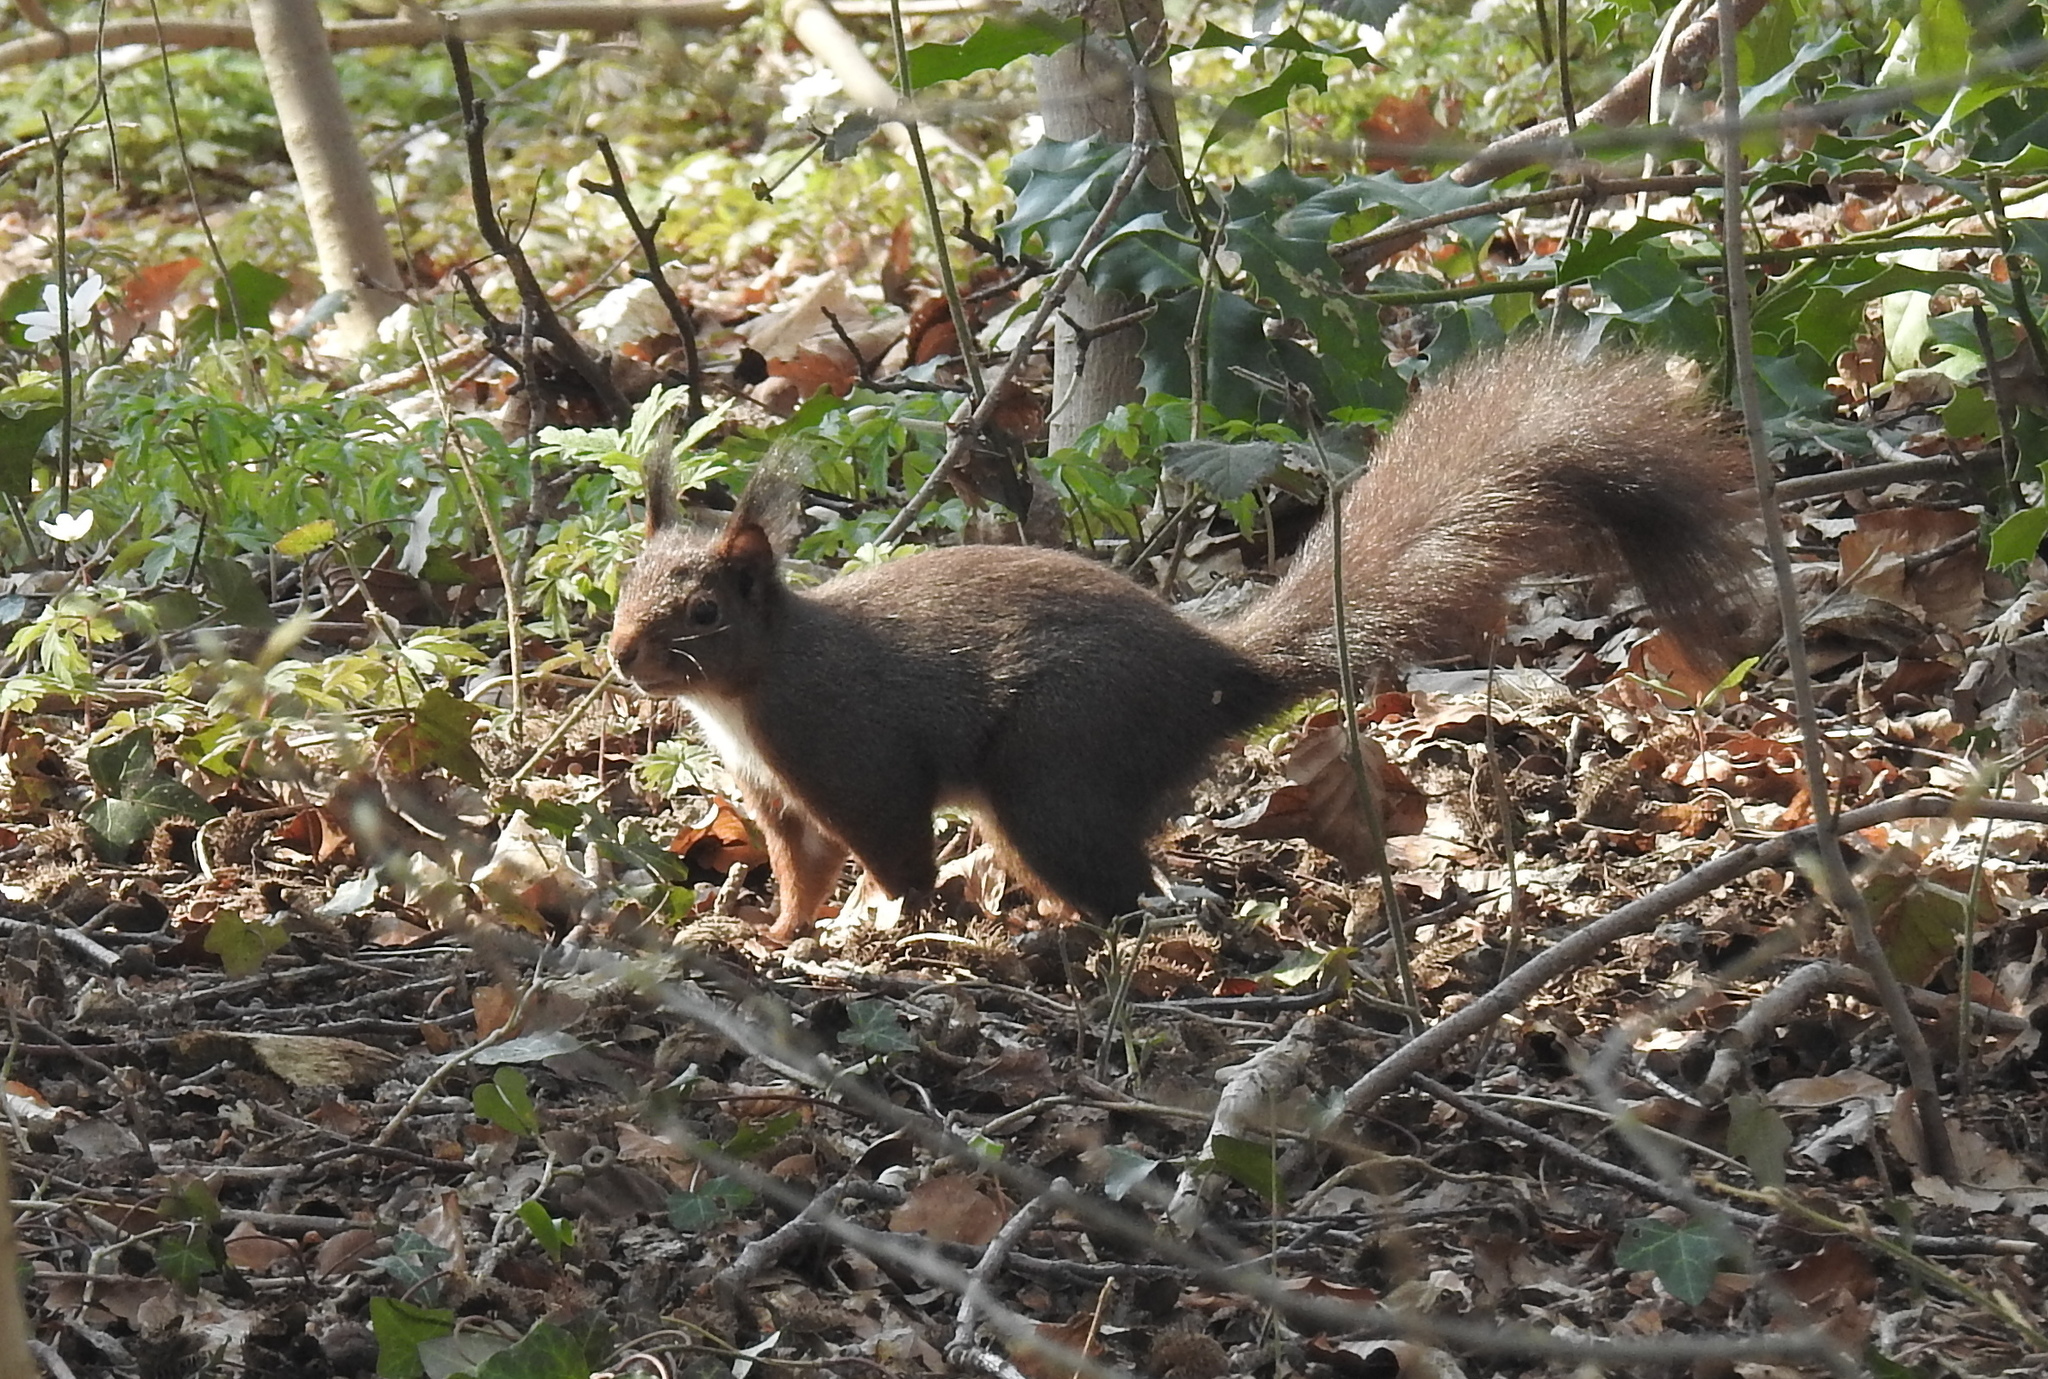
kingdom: Animalia
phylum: Chordata
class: Mammalia
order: Rodentia
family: Sciuridae
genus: Sciurus
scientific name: Sciurus vulgaris
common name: Eurasian red squirrel
